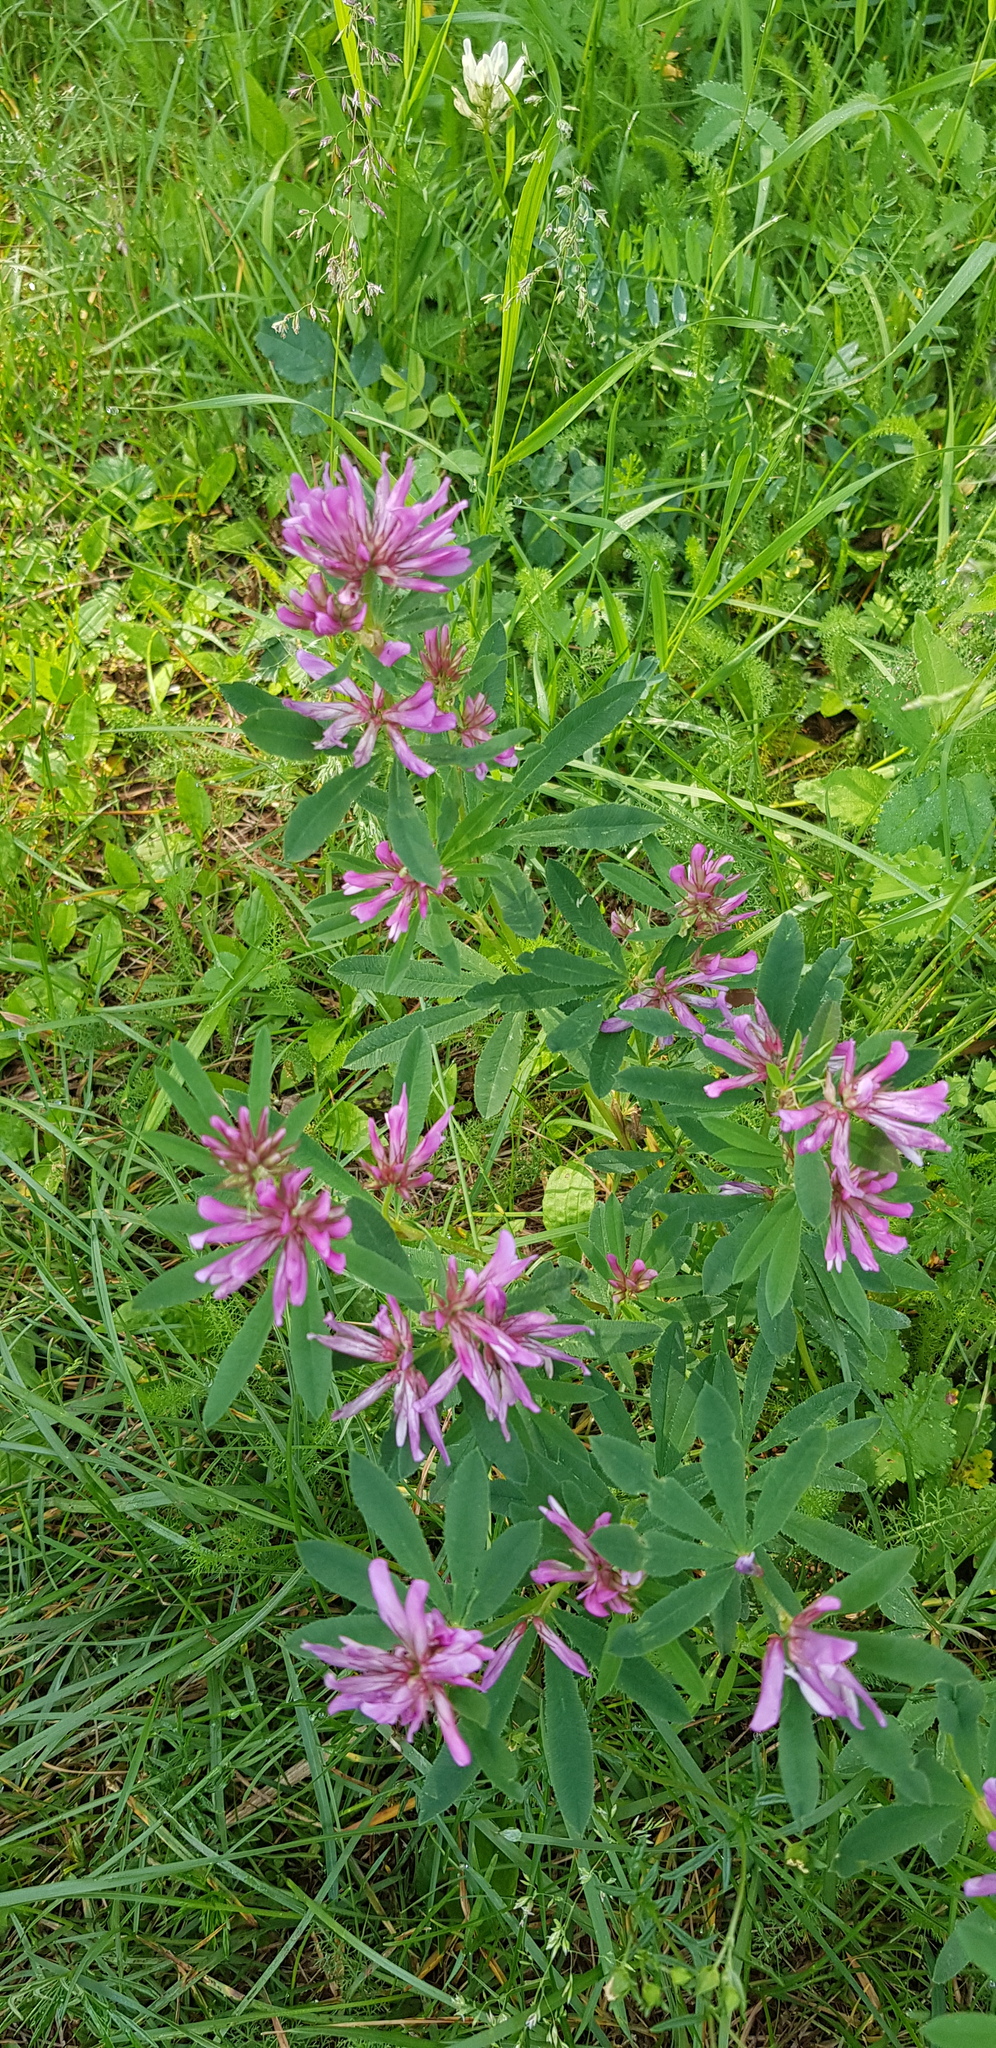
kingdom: Plantae
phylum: Tracheophyta
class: Magnoliopsida
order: Fabales
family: Fabaceae
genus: Trifolium
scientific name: Trifolium lupinaster
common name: Lupine clover
